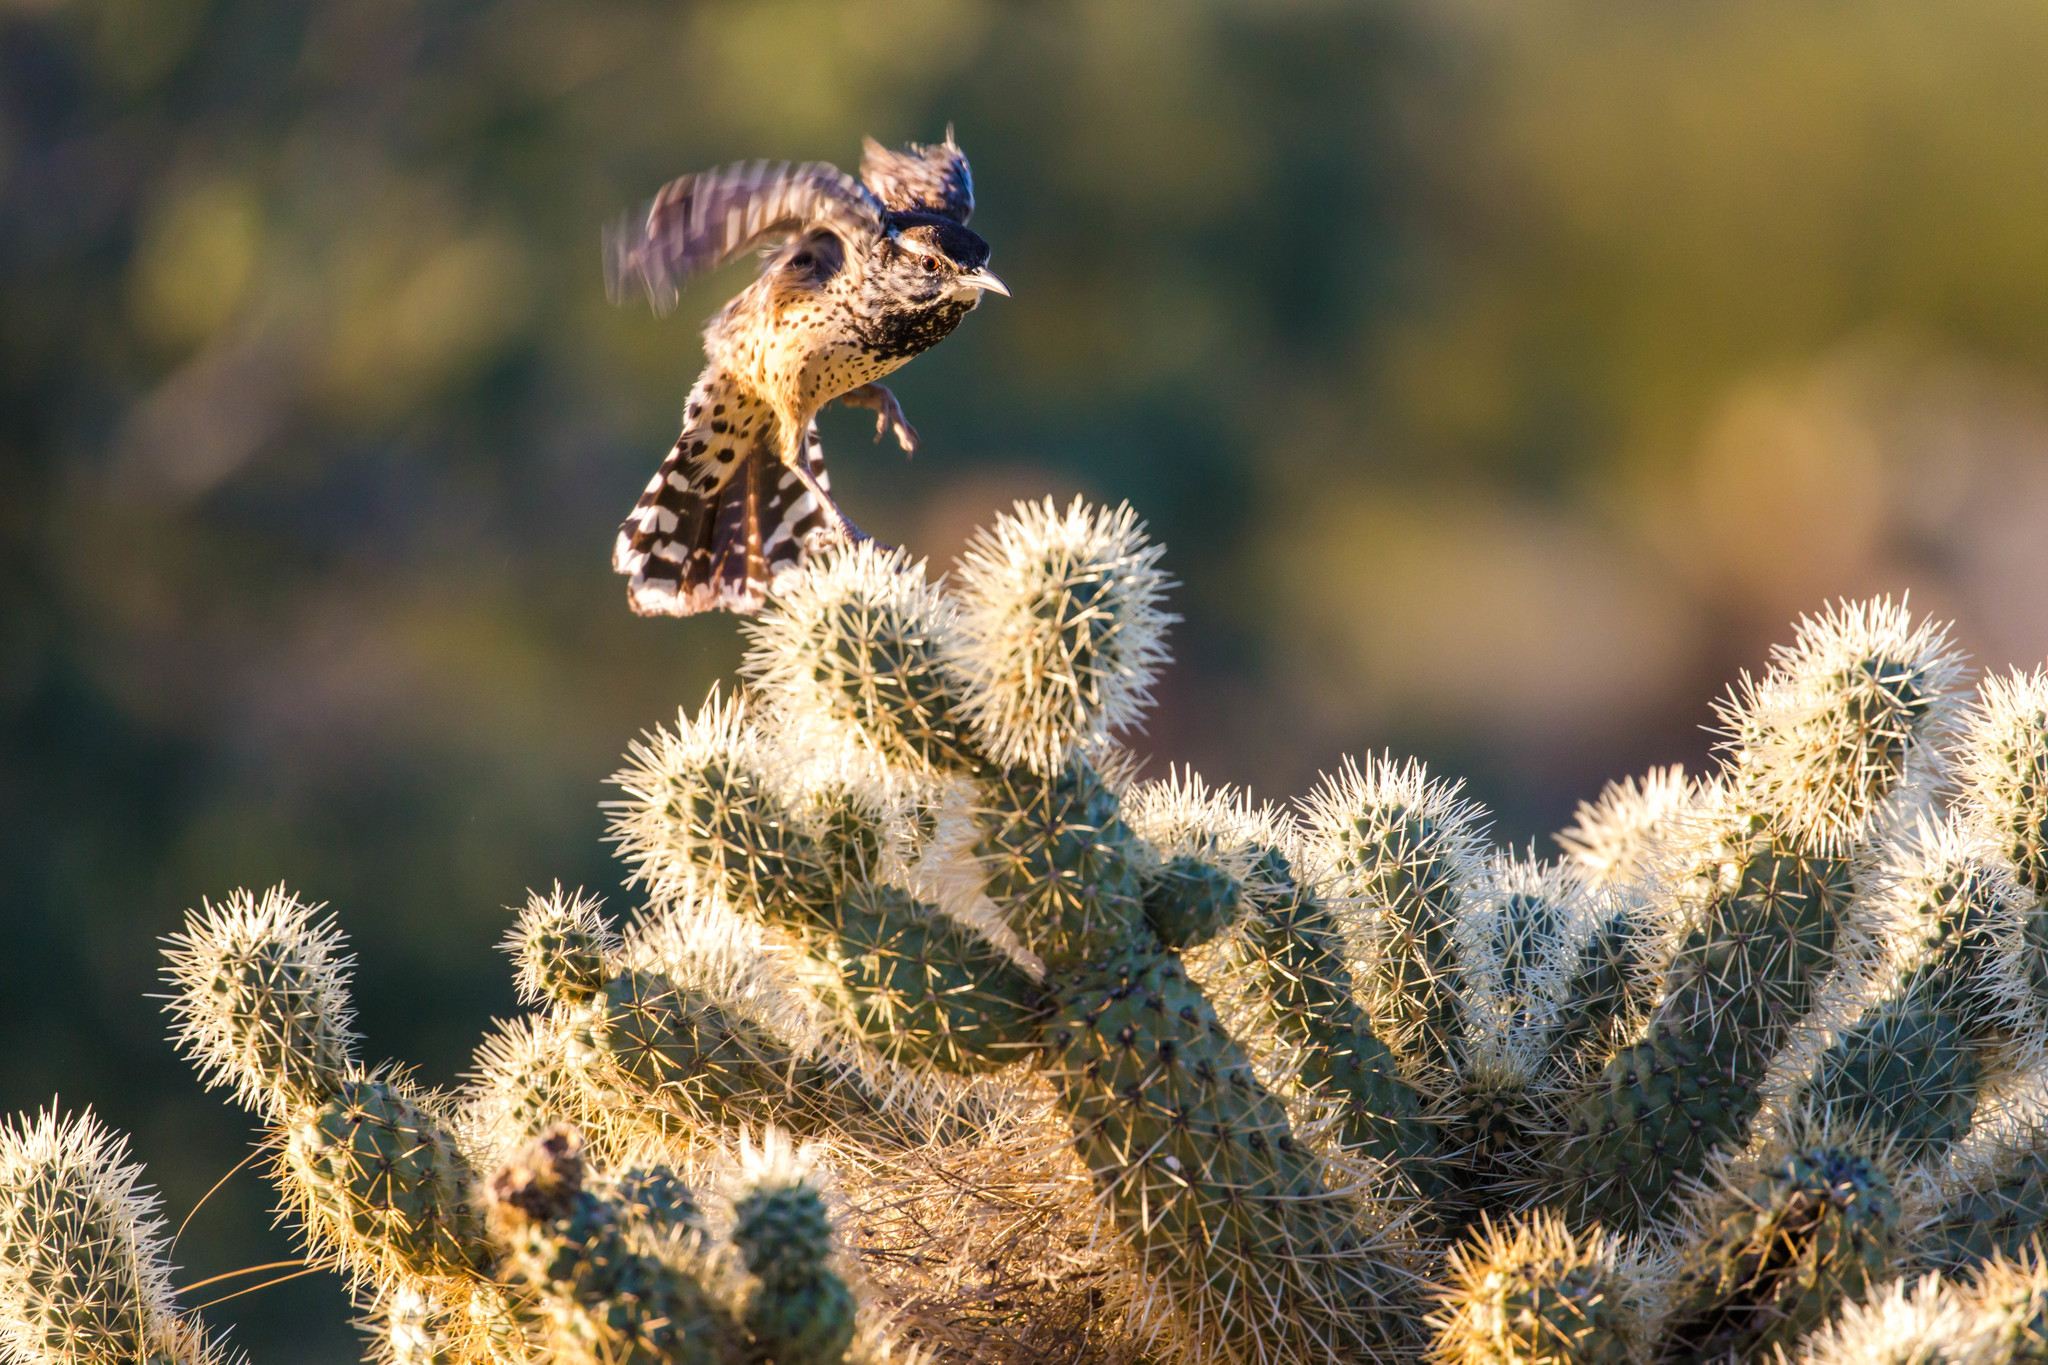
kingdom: Animalia
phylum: Chordata
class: Aves
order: Passeriformes
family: Troglodytidae
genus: Campylorhynchus
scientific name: Campylorhynchus brunneicapillus
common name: Cactus wren
